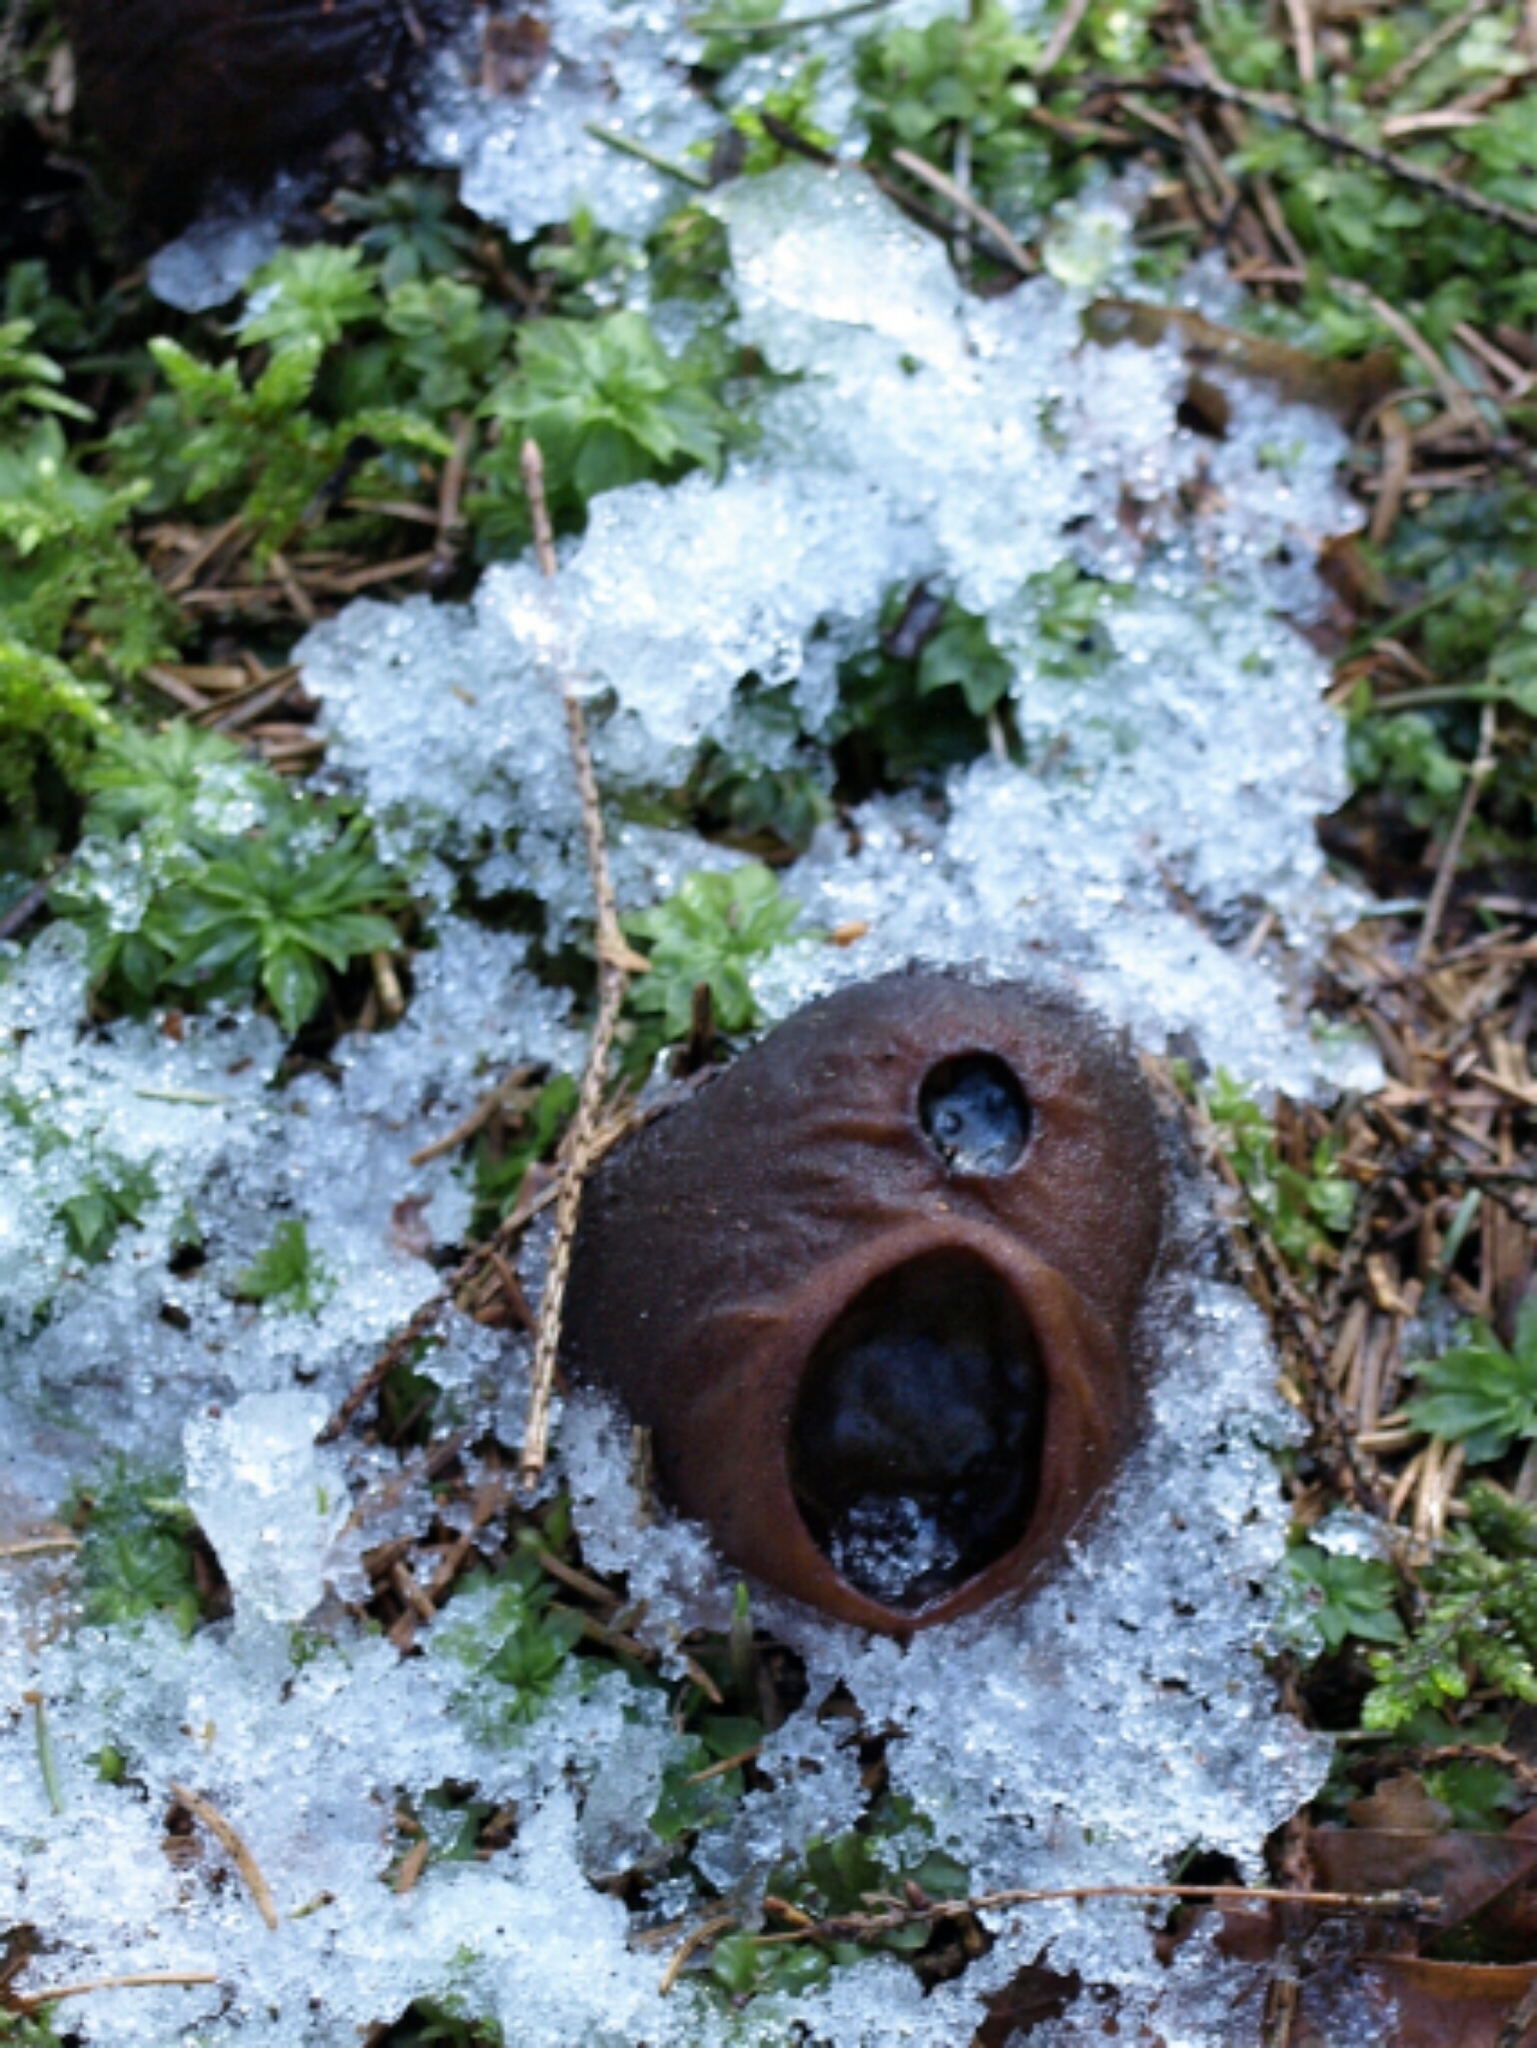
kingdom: Fungi
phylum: Ascomycota
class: Pezizomycetes
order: Pezizales
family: Sarcosomataceae
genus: Sarcosoma
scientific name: Sarcosoma globosum
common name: Charred-pancake cup
